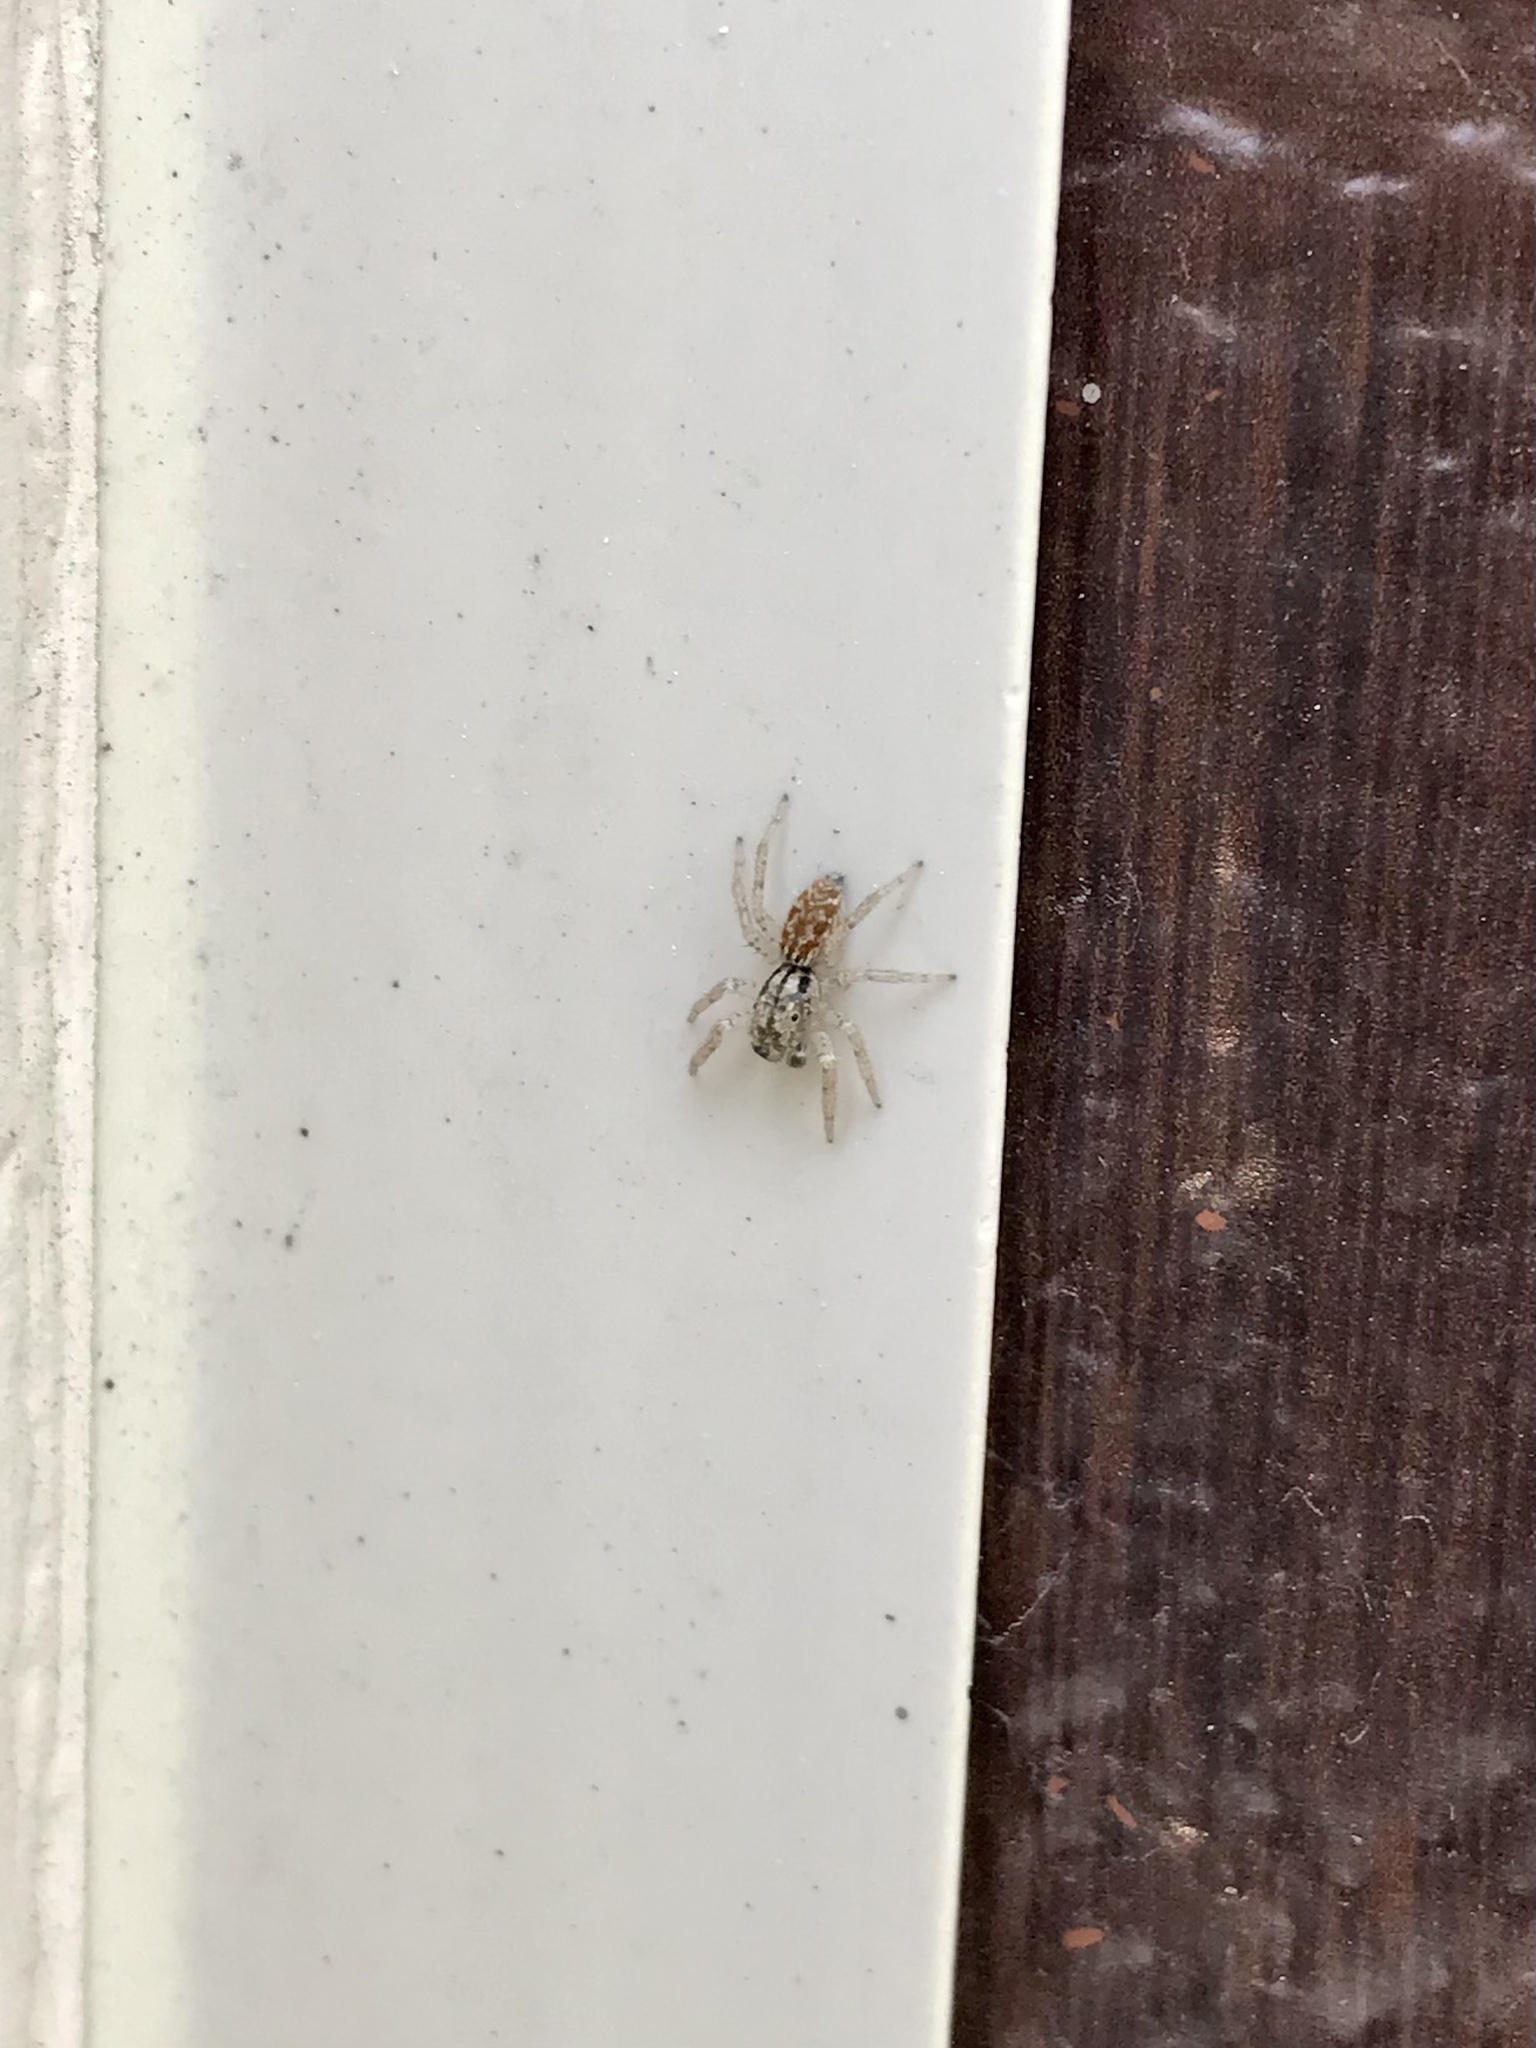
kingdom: Animalia
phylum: Arthropoda
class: Arachnida
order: Araneae
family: Salticidae
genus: Maevia
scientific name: Maevia inclemens
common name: Dimorphic jumper
